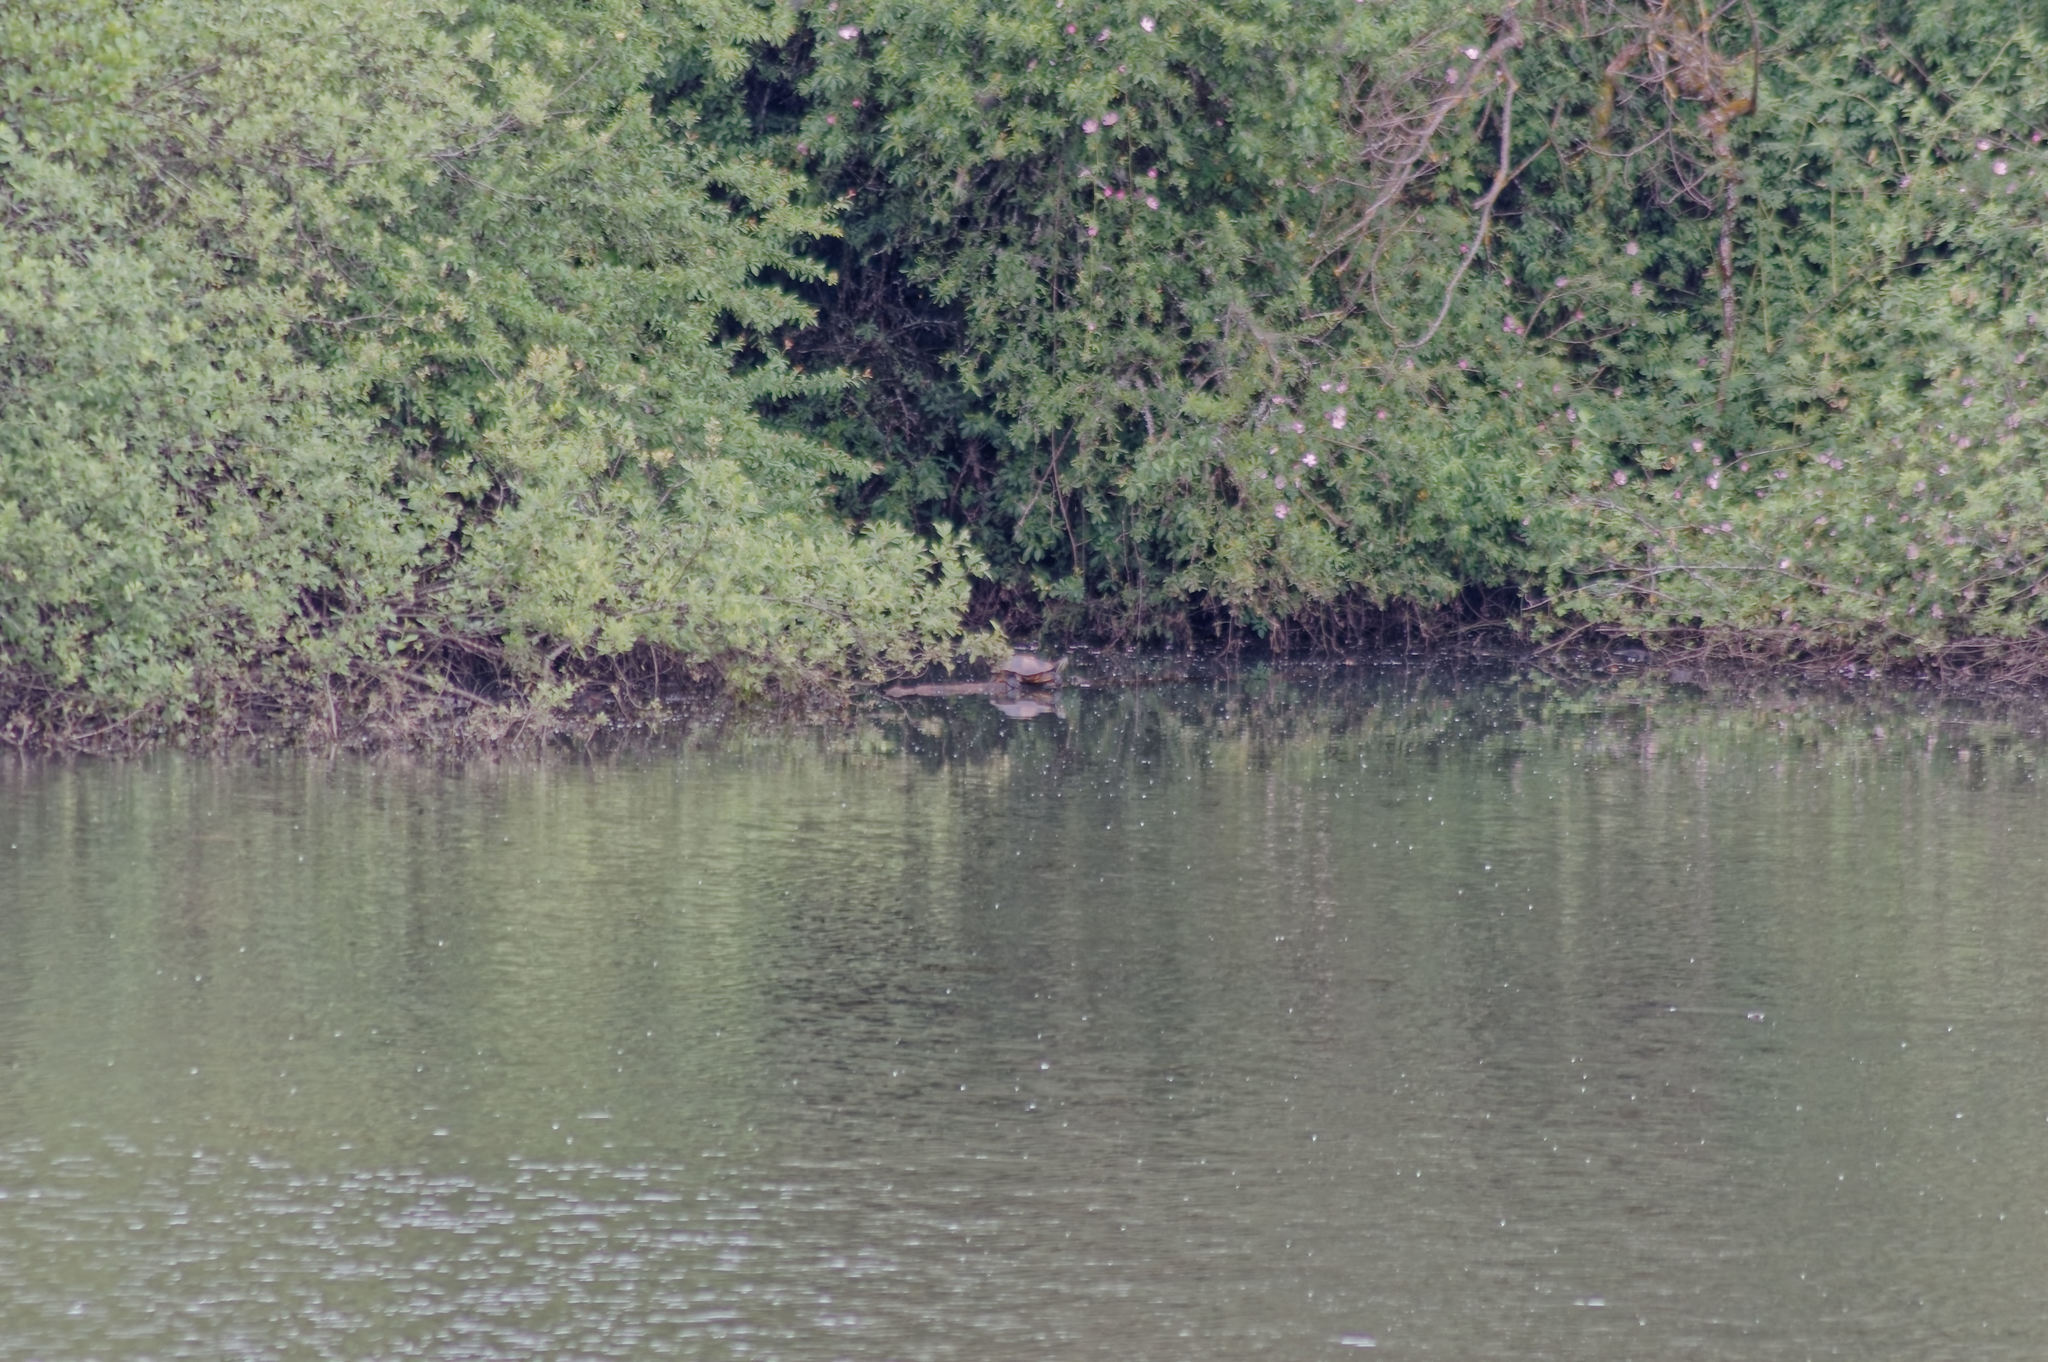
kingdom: Animalia
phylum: Chordata
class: Testudines
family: Emydidae
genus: Trachemys
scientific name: Trachemys scripta
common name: Slider
